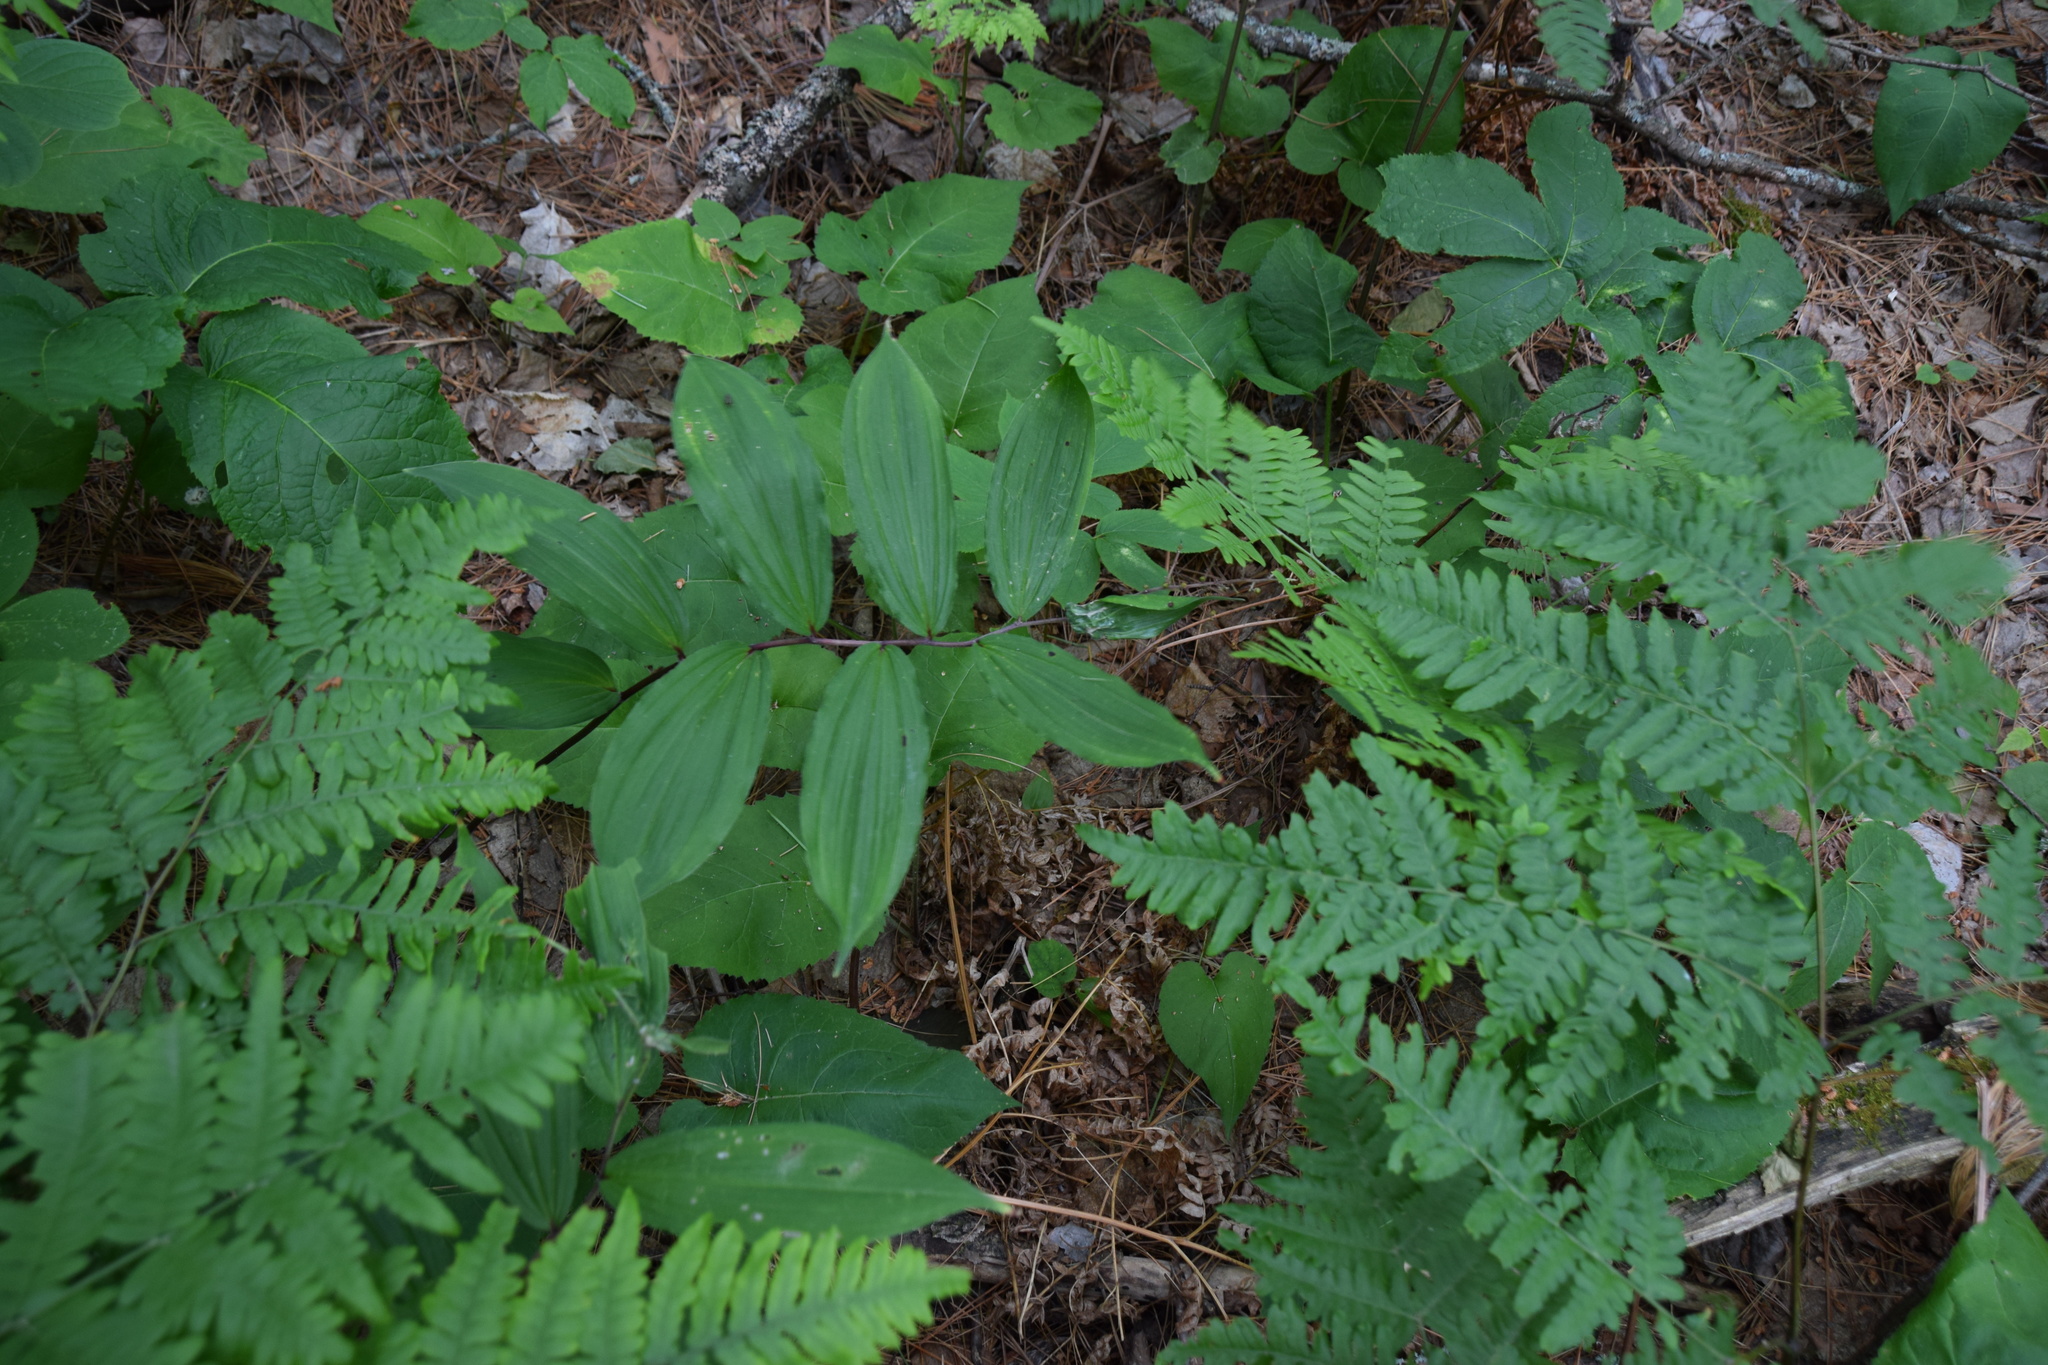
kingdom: Plantae
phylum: Tracheophyta
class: Liliopsida
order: Asparagales
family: Asparagaceae
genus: Maianthemum
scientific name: Maianthemum racemosum
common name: False spikenard
